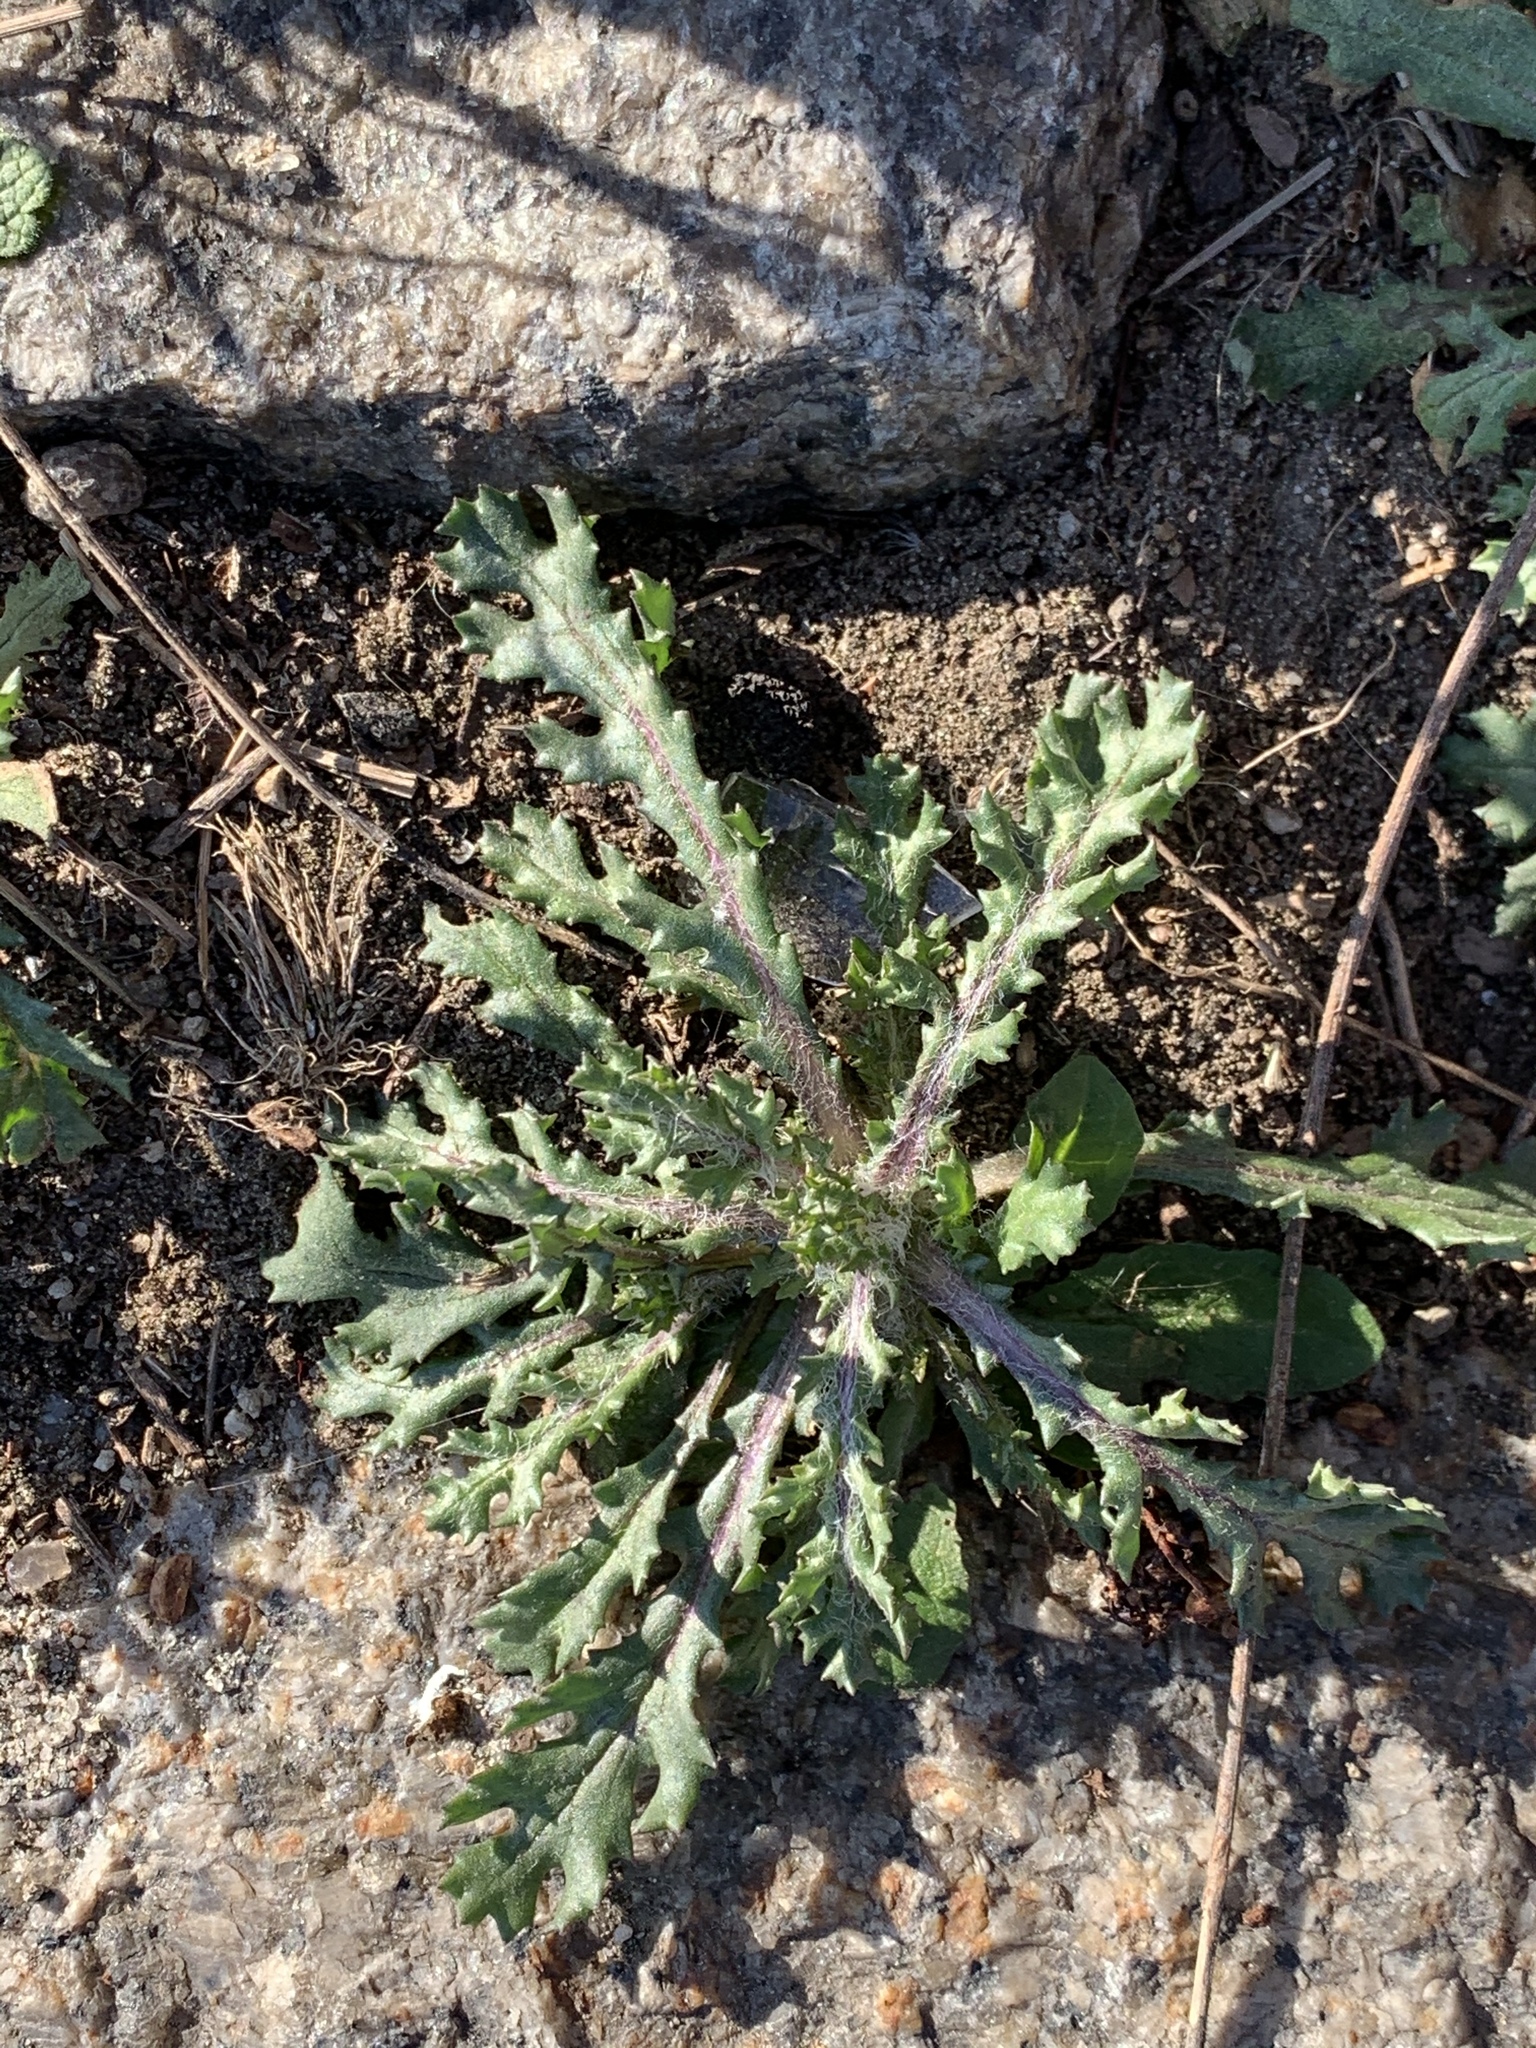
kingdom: Plantae
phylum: Tracheophyta
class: Magnoliopsida
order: Asterales
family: Asteraceae
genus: Senecio
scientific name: Senecio vulgaris
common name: Old-man-in-the-spring
